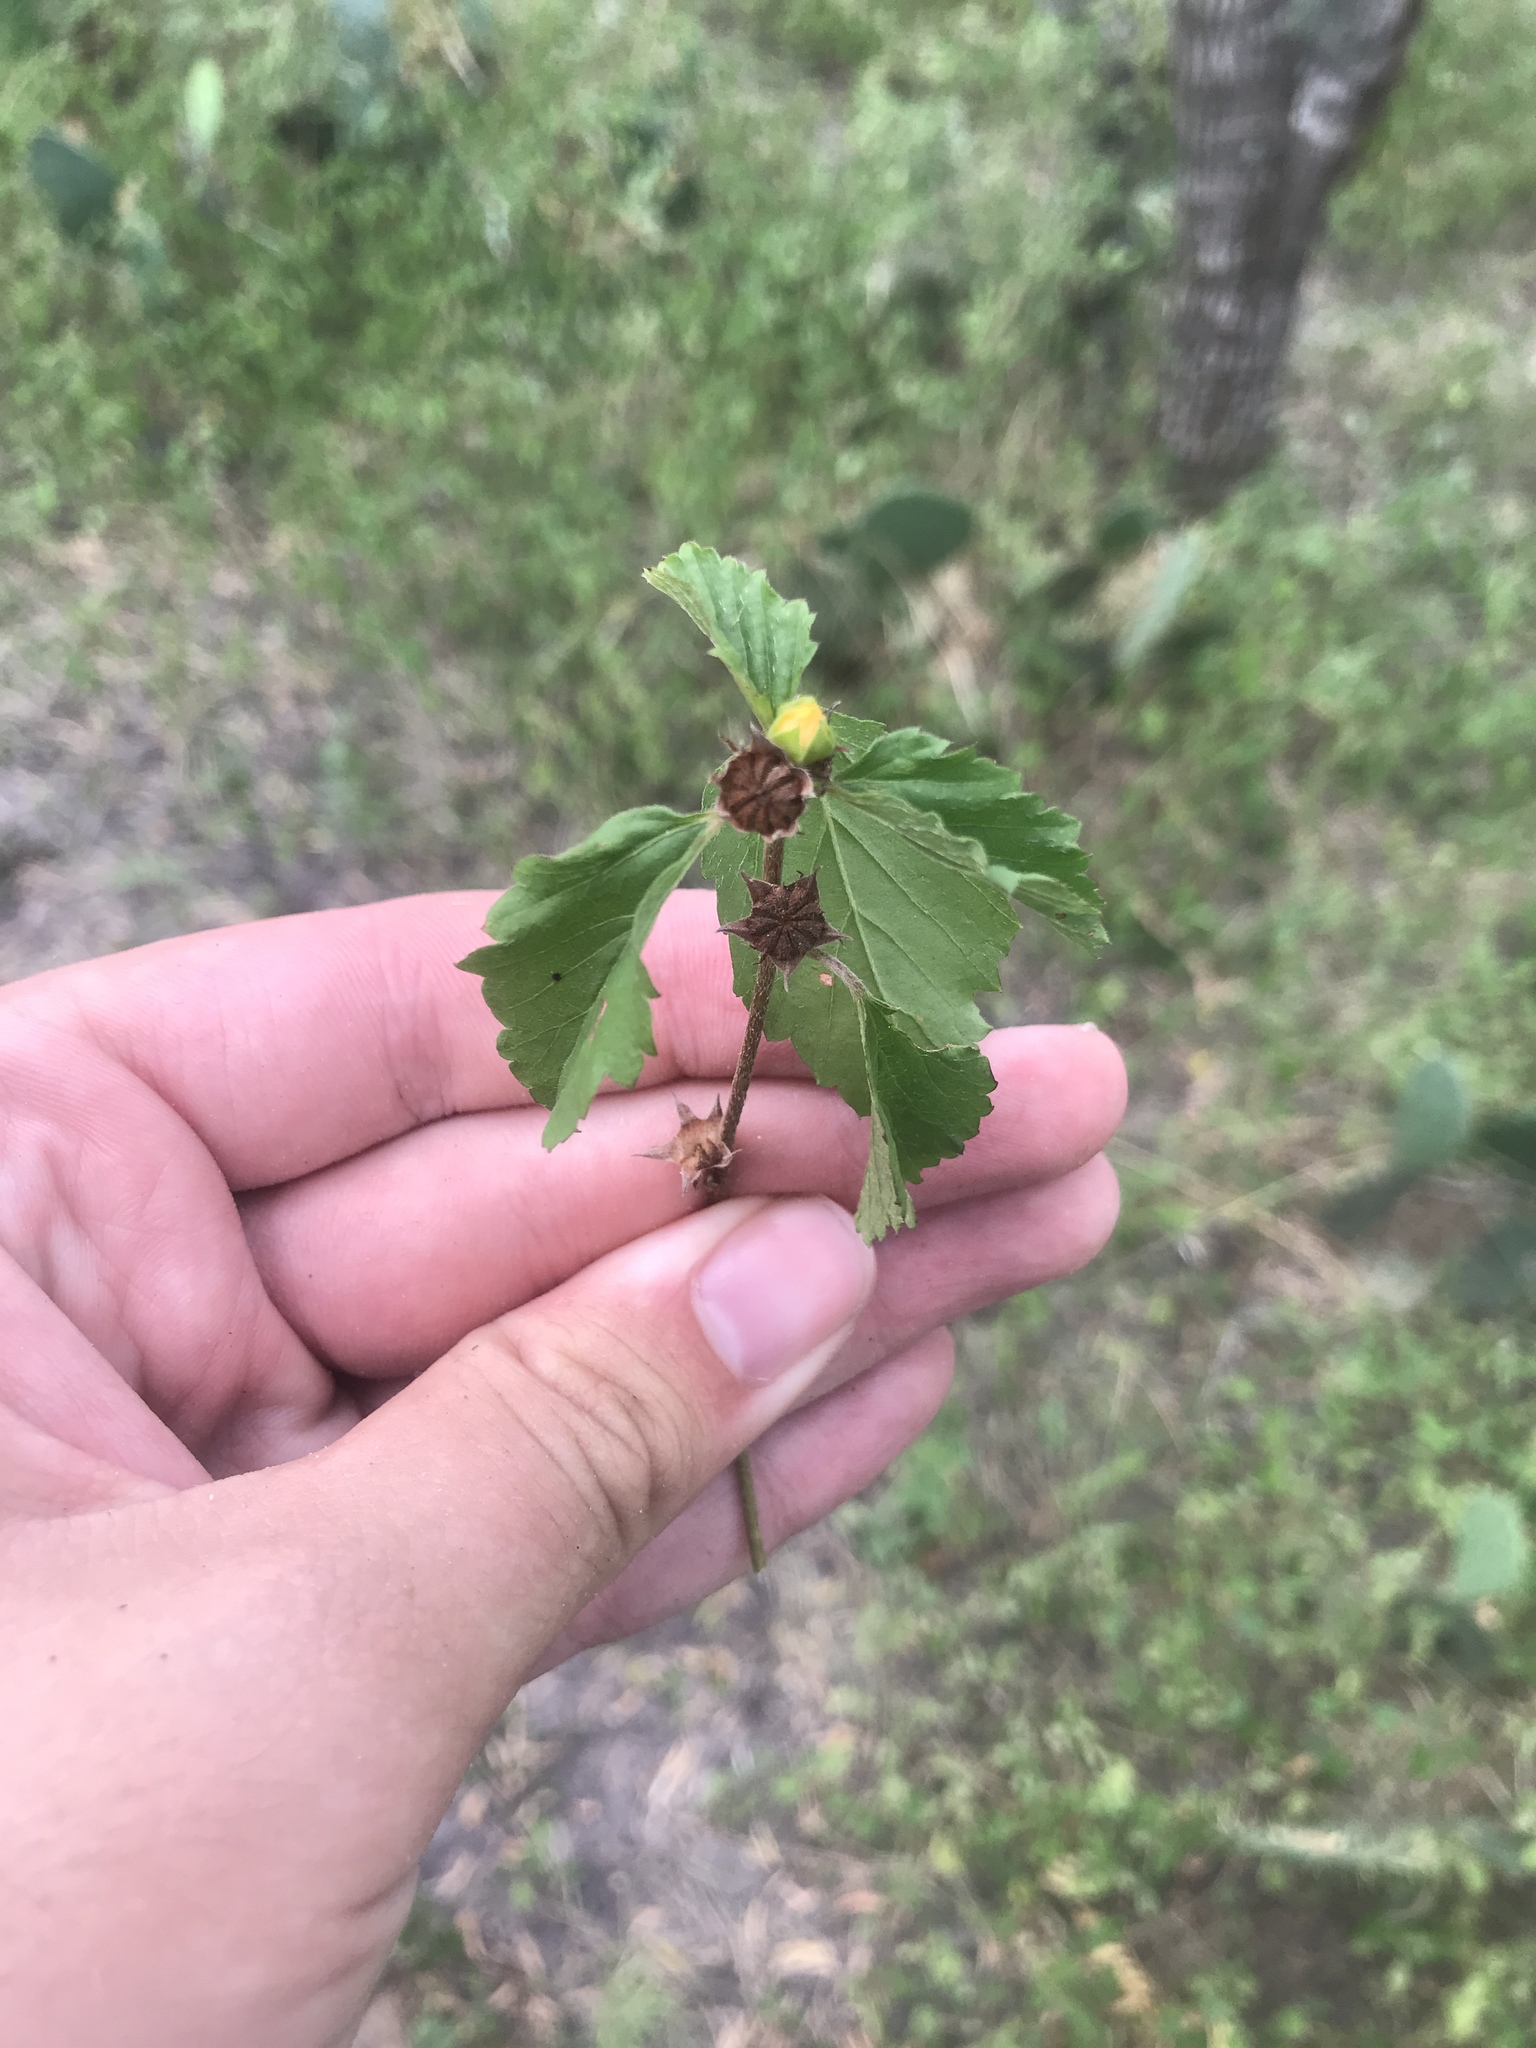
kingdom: Plantae
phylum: Tracheophyta
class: Magnoliopsida
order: Malvales
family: Malvaceae
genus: Malvastrum
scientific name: Malvastrum coromandelianum
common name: Threelobe false mallow
